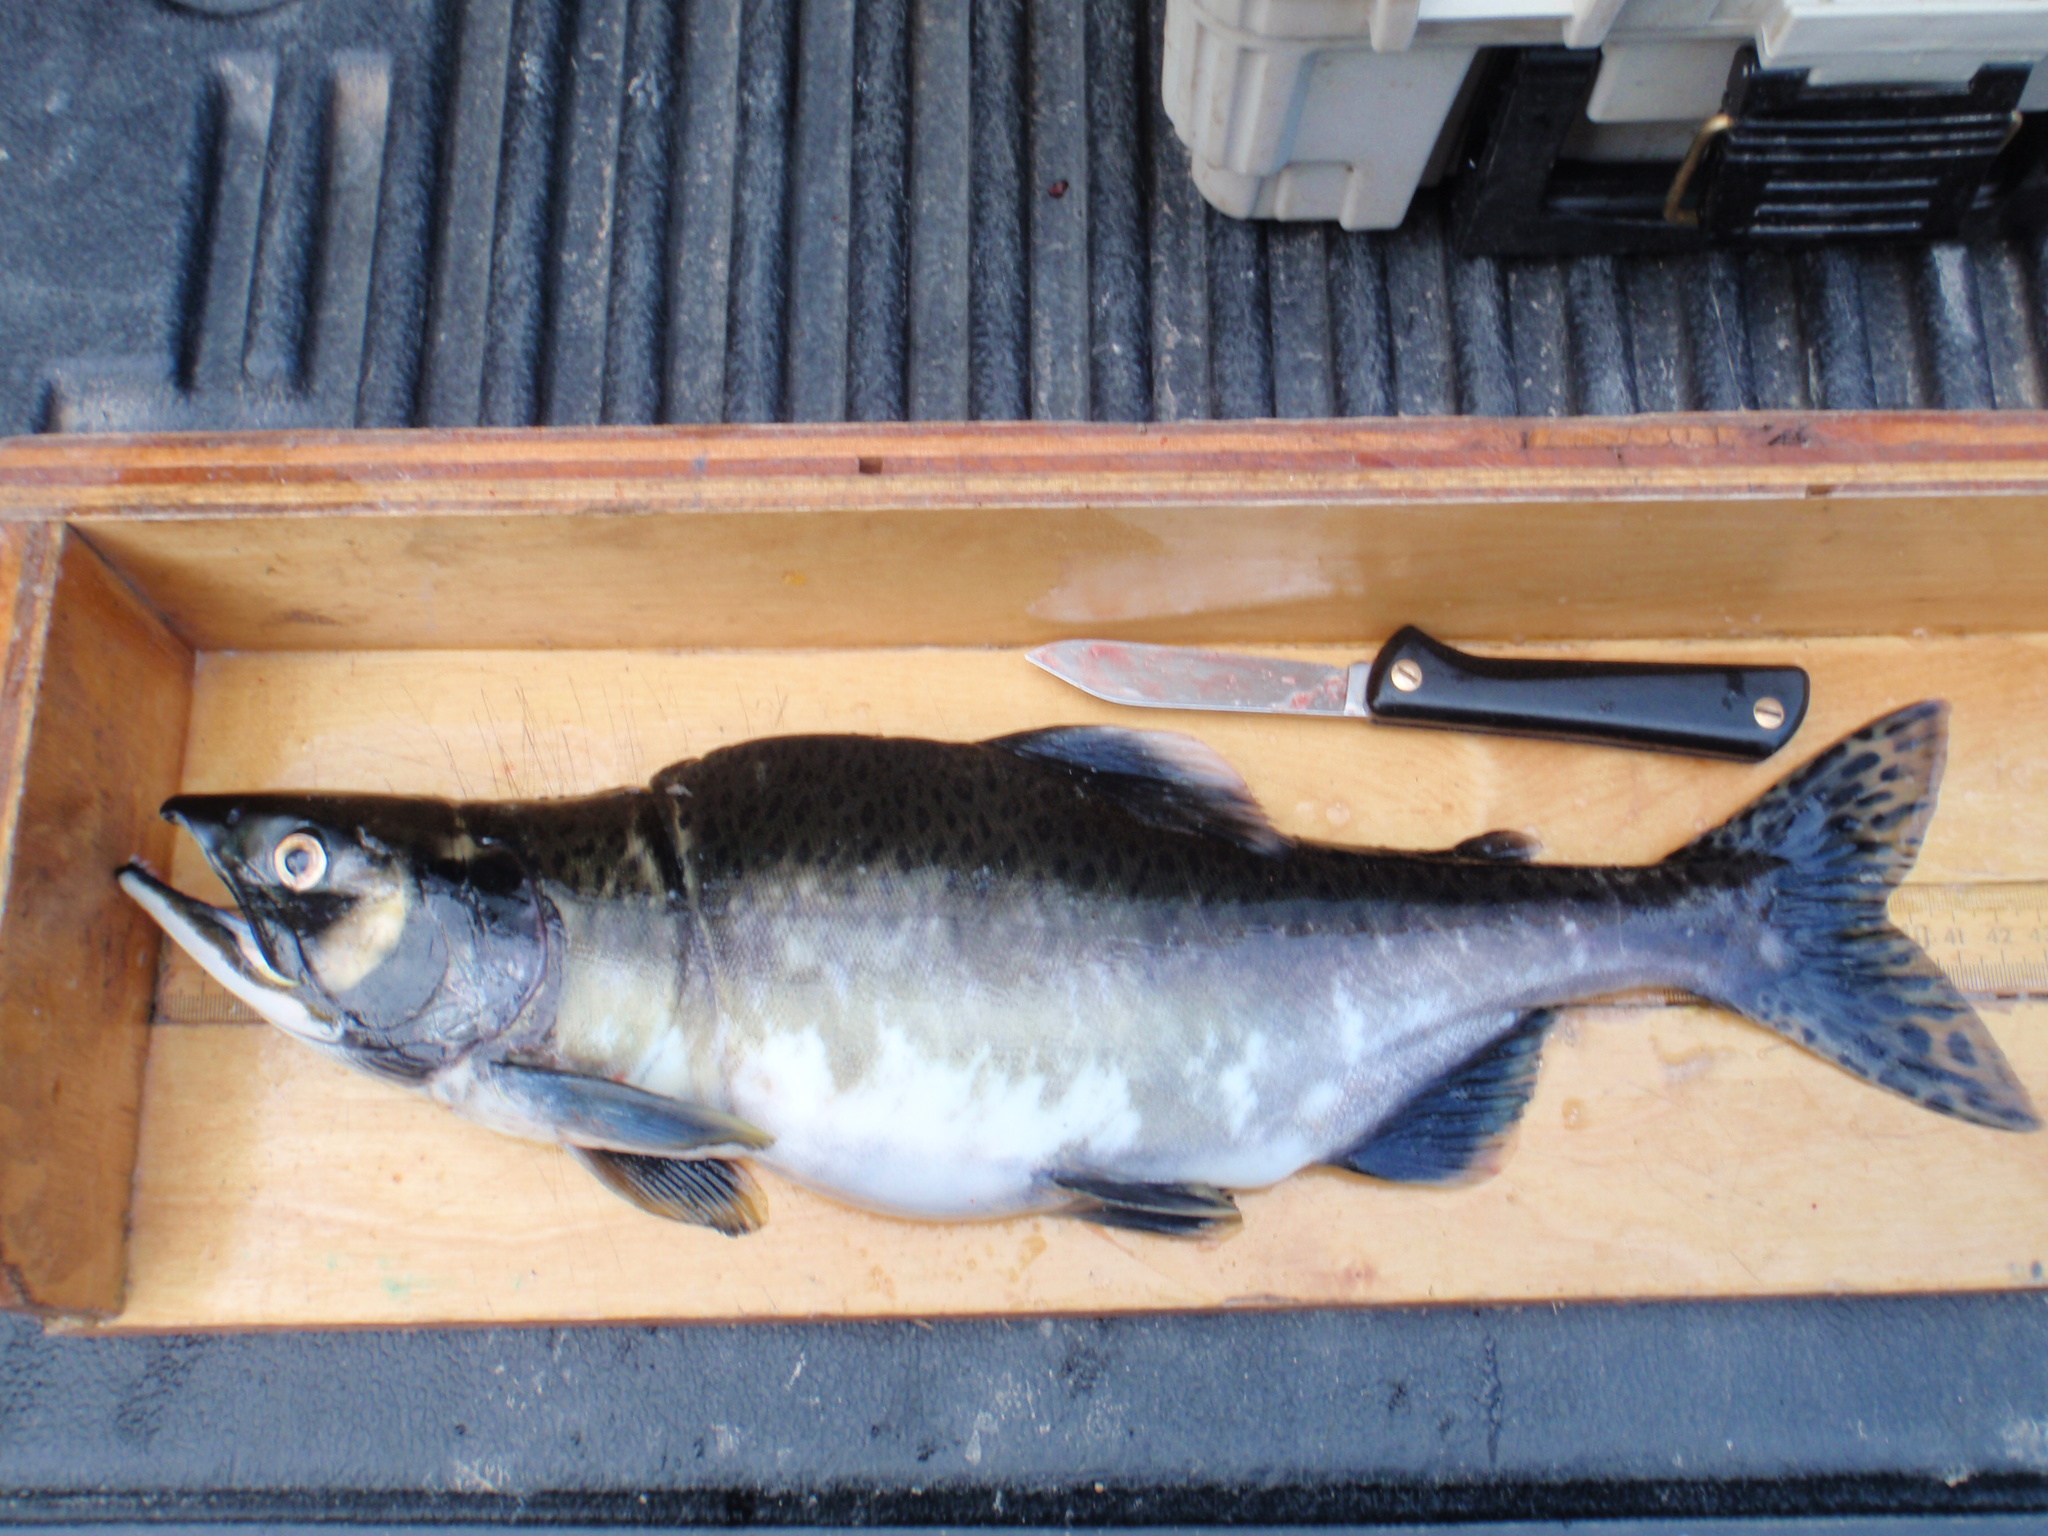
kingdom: Animalia
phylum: Chordata
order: Salmoniformes
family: Salmonidae
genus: Oncorhynchus
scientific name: Oncorhynchus gorbuscha
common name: Humpback salmon
